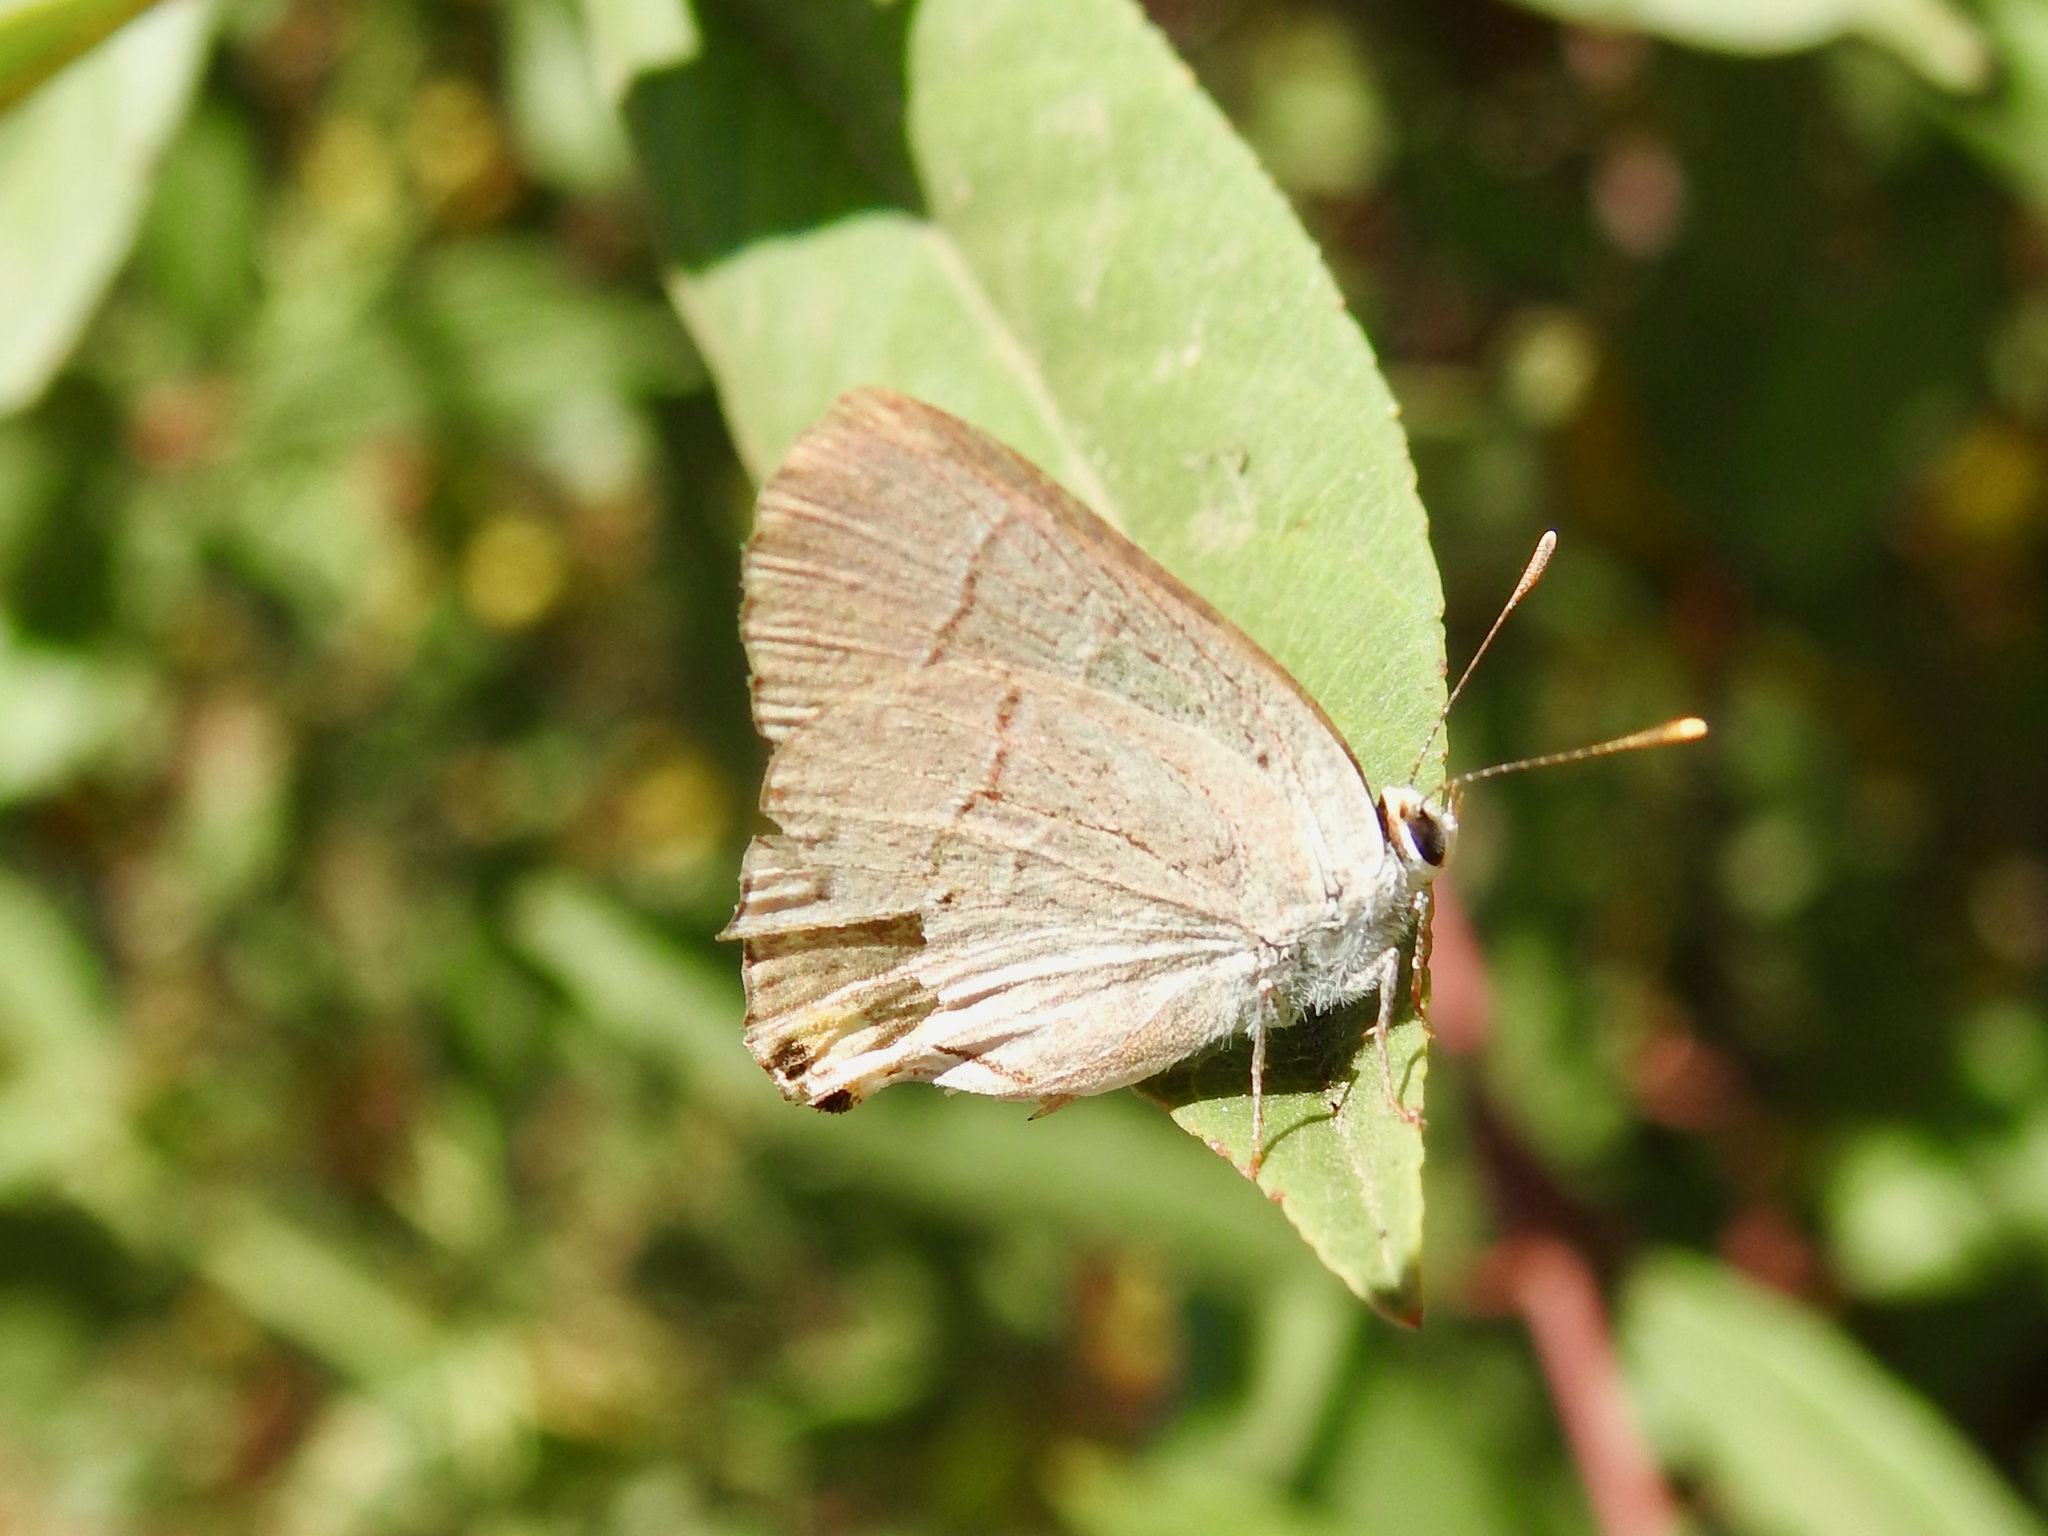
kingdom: Animalia
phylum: Arthropoda
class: Insecta
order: Lepidoptera
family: Lycaenidae
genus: Strymon
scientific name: Strymon melinus
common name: Gray hairstreak
